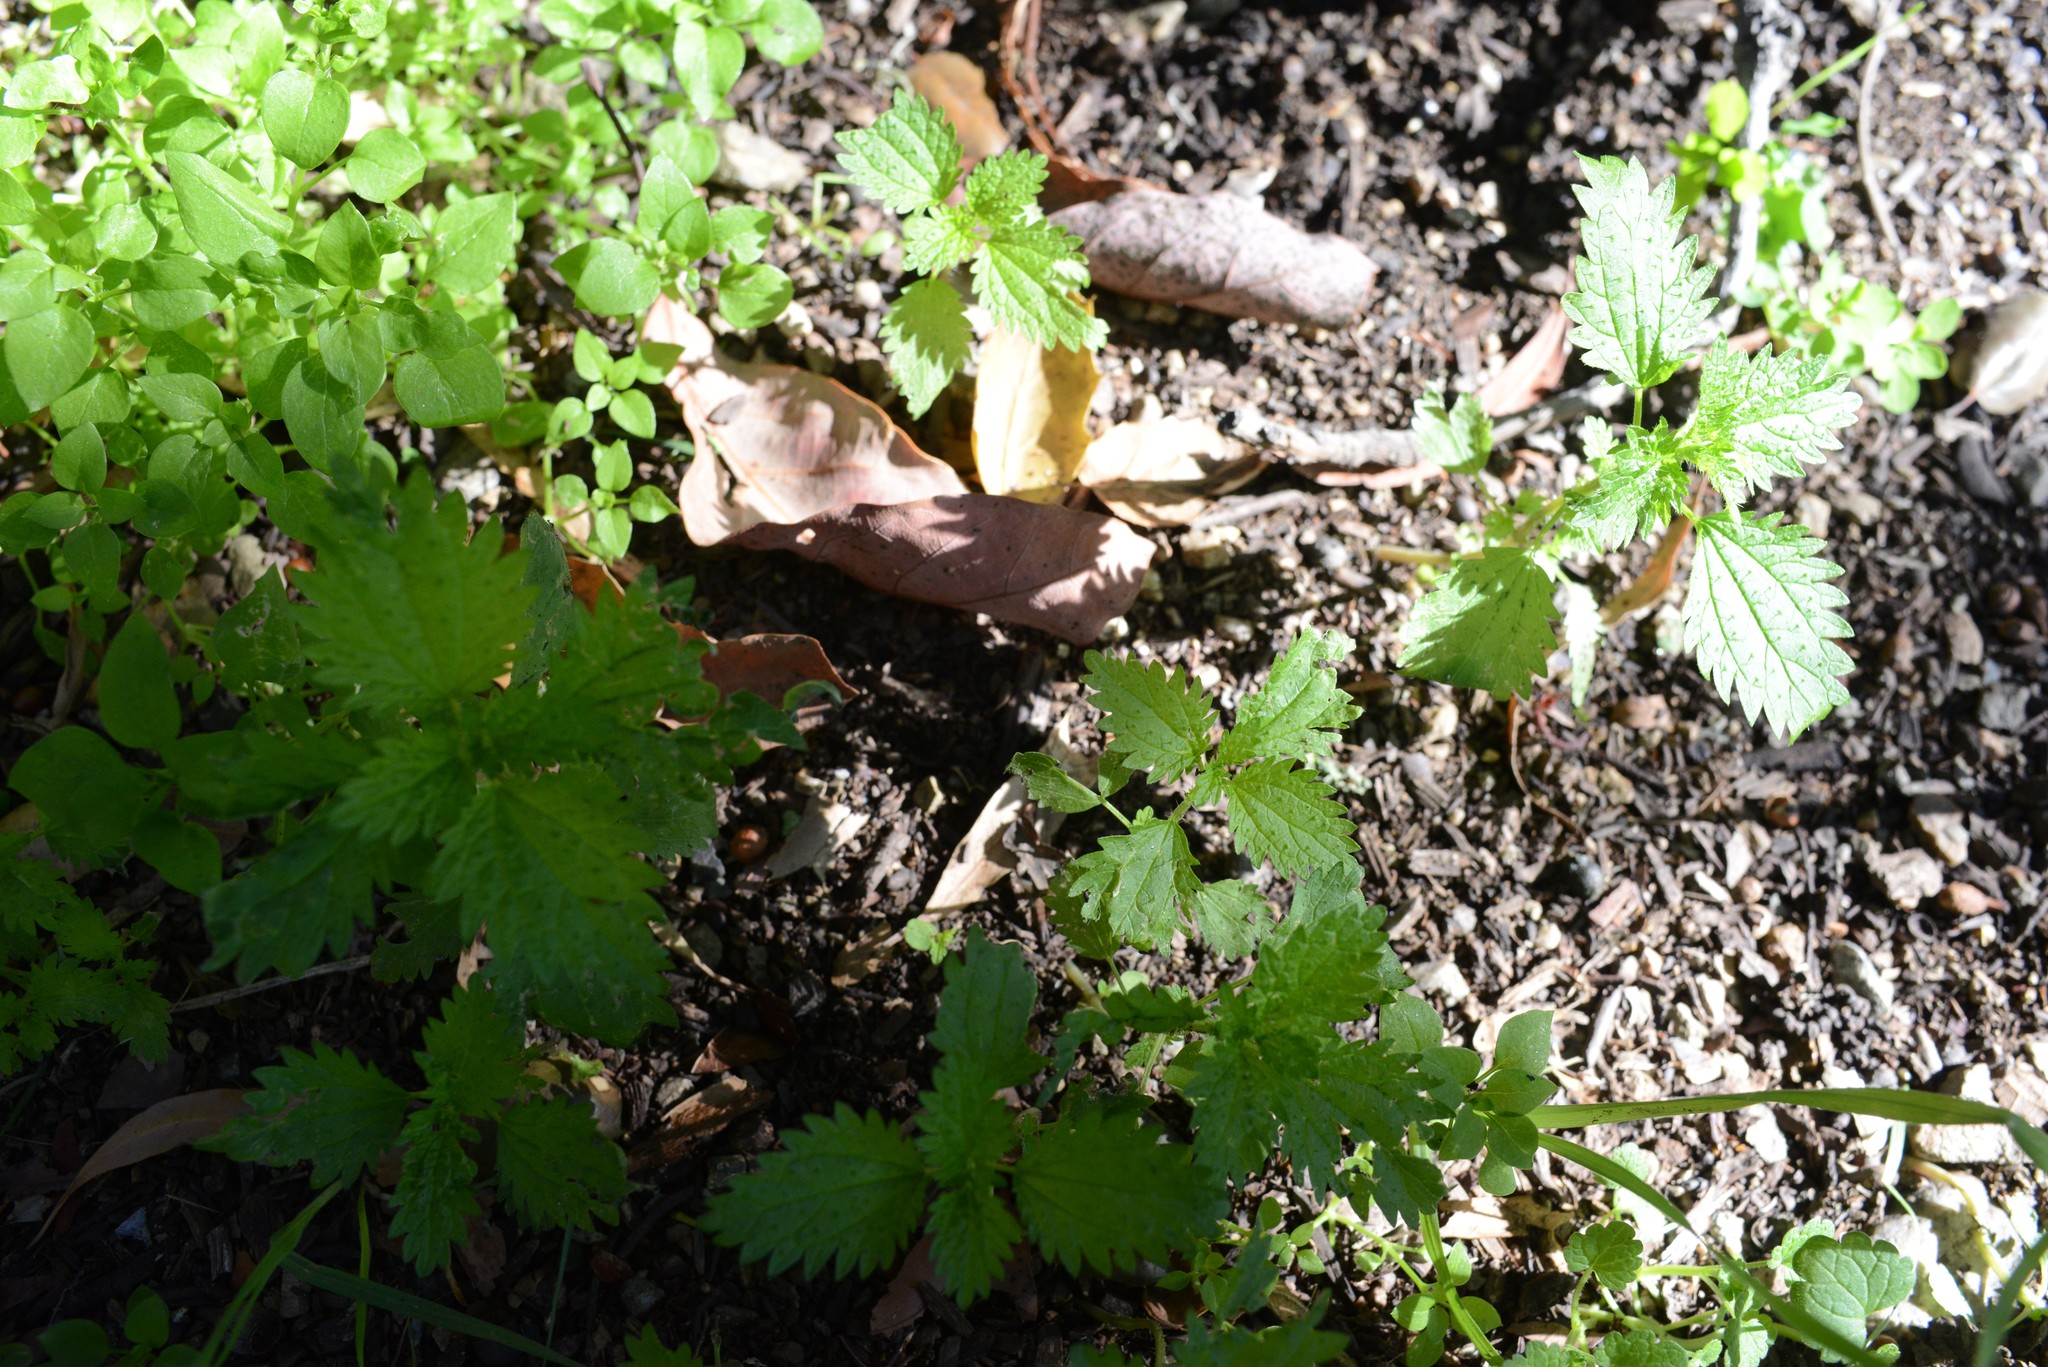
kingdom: Plantae
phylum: Tracheophyta
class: Magnoliopsida
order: Rosales
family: Urticaceae
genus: Urtica
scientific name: Urtica urens
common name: Dwarf nettle
